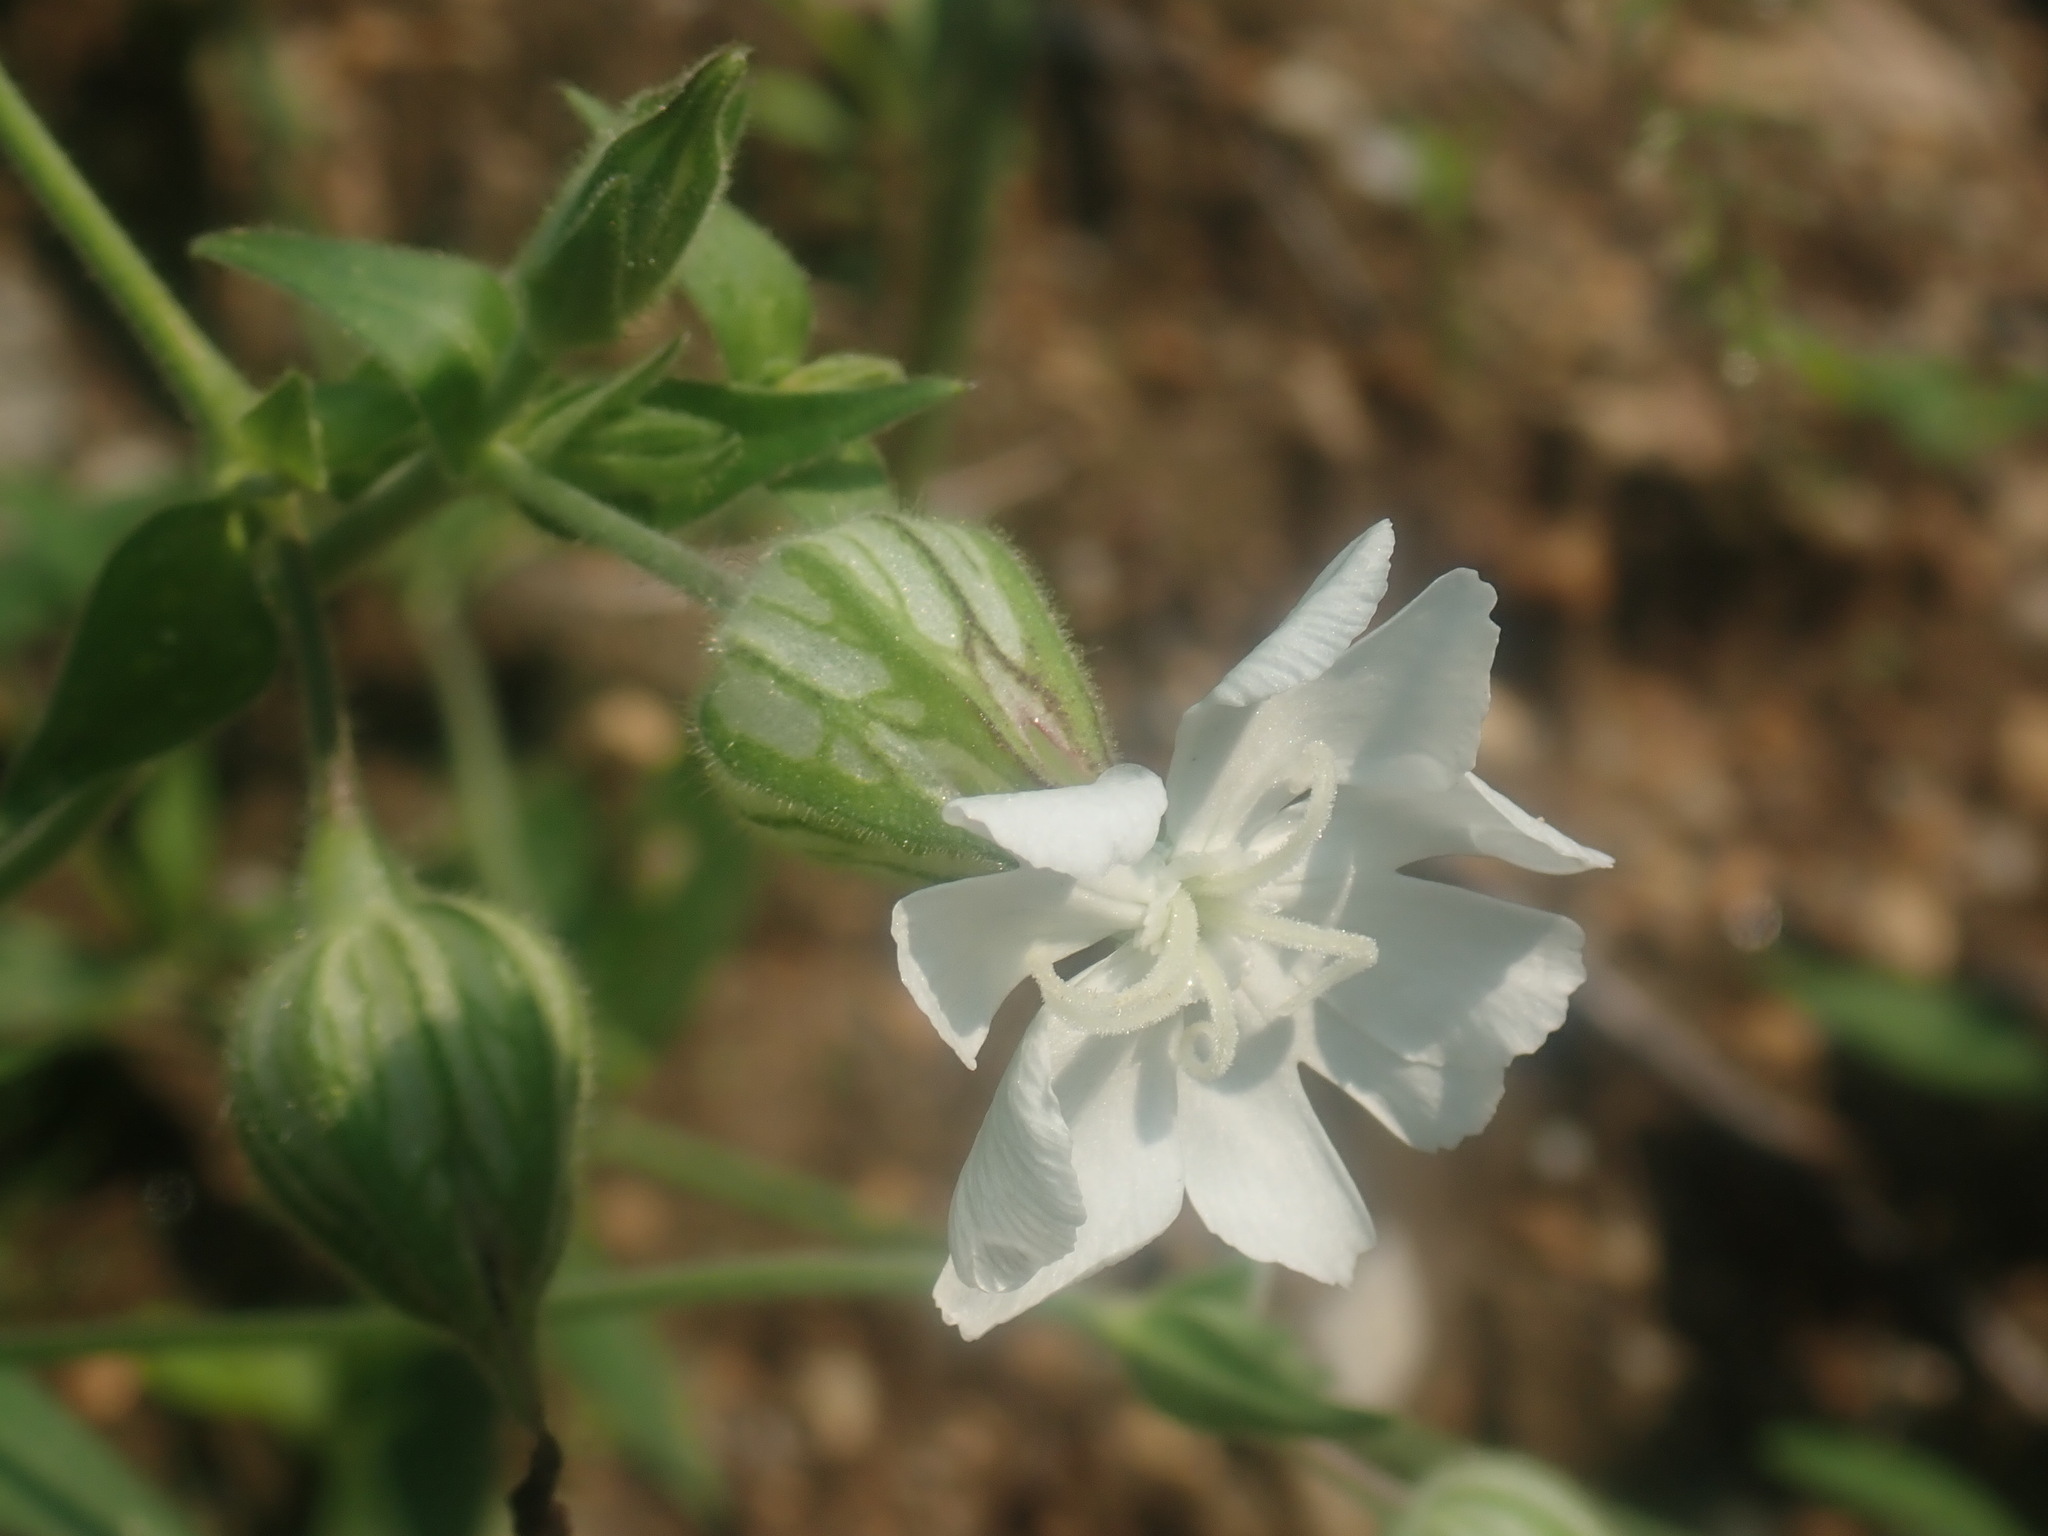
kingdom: Plantae
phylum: Tracheophyta
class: Magnoliopsida
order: Caryophyllales
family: Caryophyllaceae
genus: Silene
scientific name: Silene latifolia
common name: White campion
